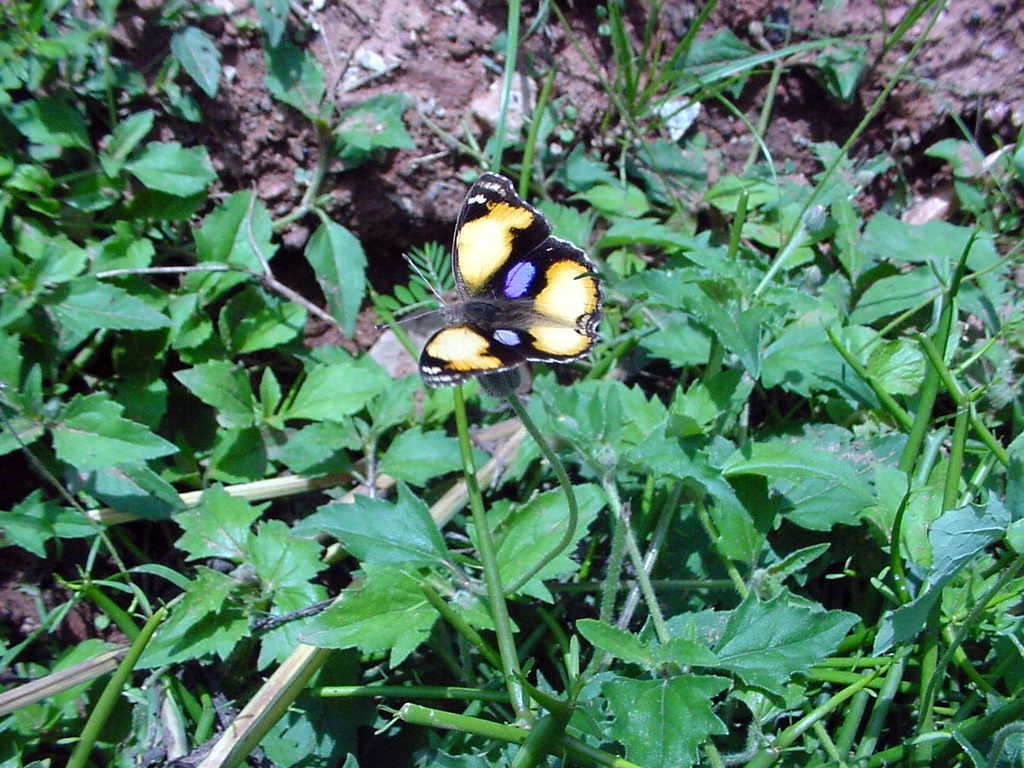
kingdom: Animalia
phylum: Arthropoda
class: Insecta
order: Lepidoptera
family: Nymphalidae
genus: Junonia
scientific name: Junonia hierta
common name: Yellow pansy
